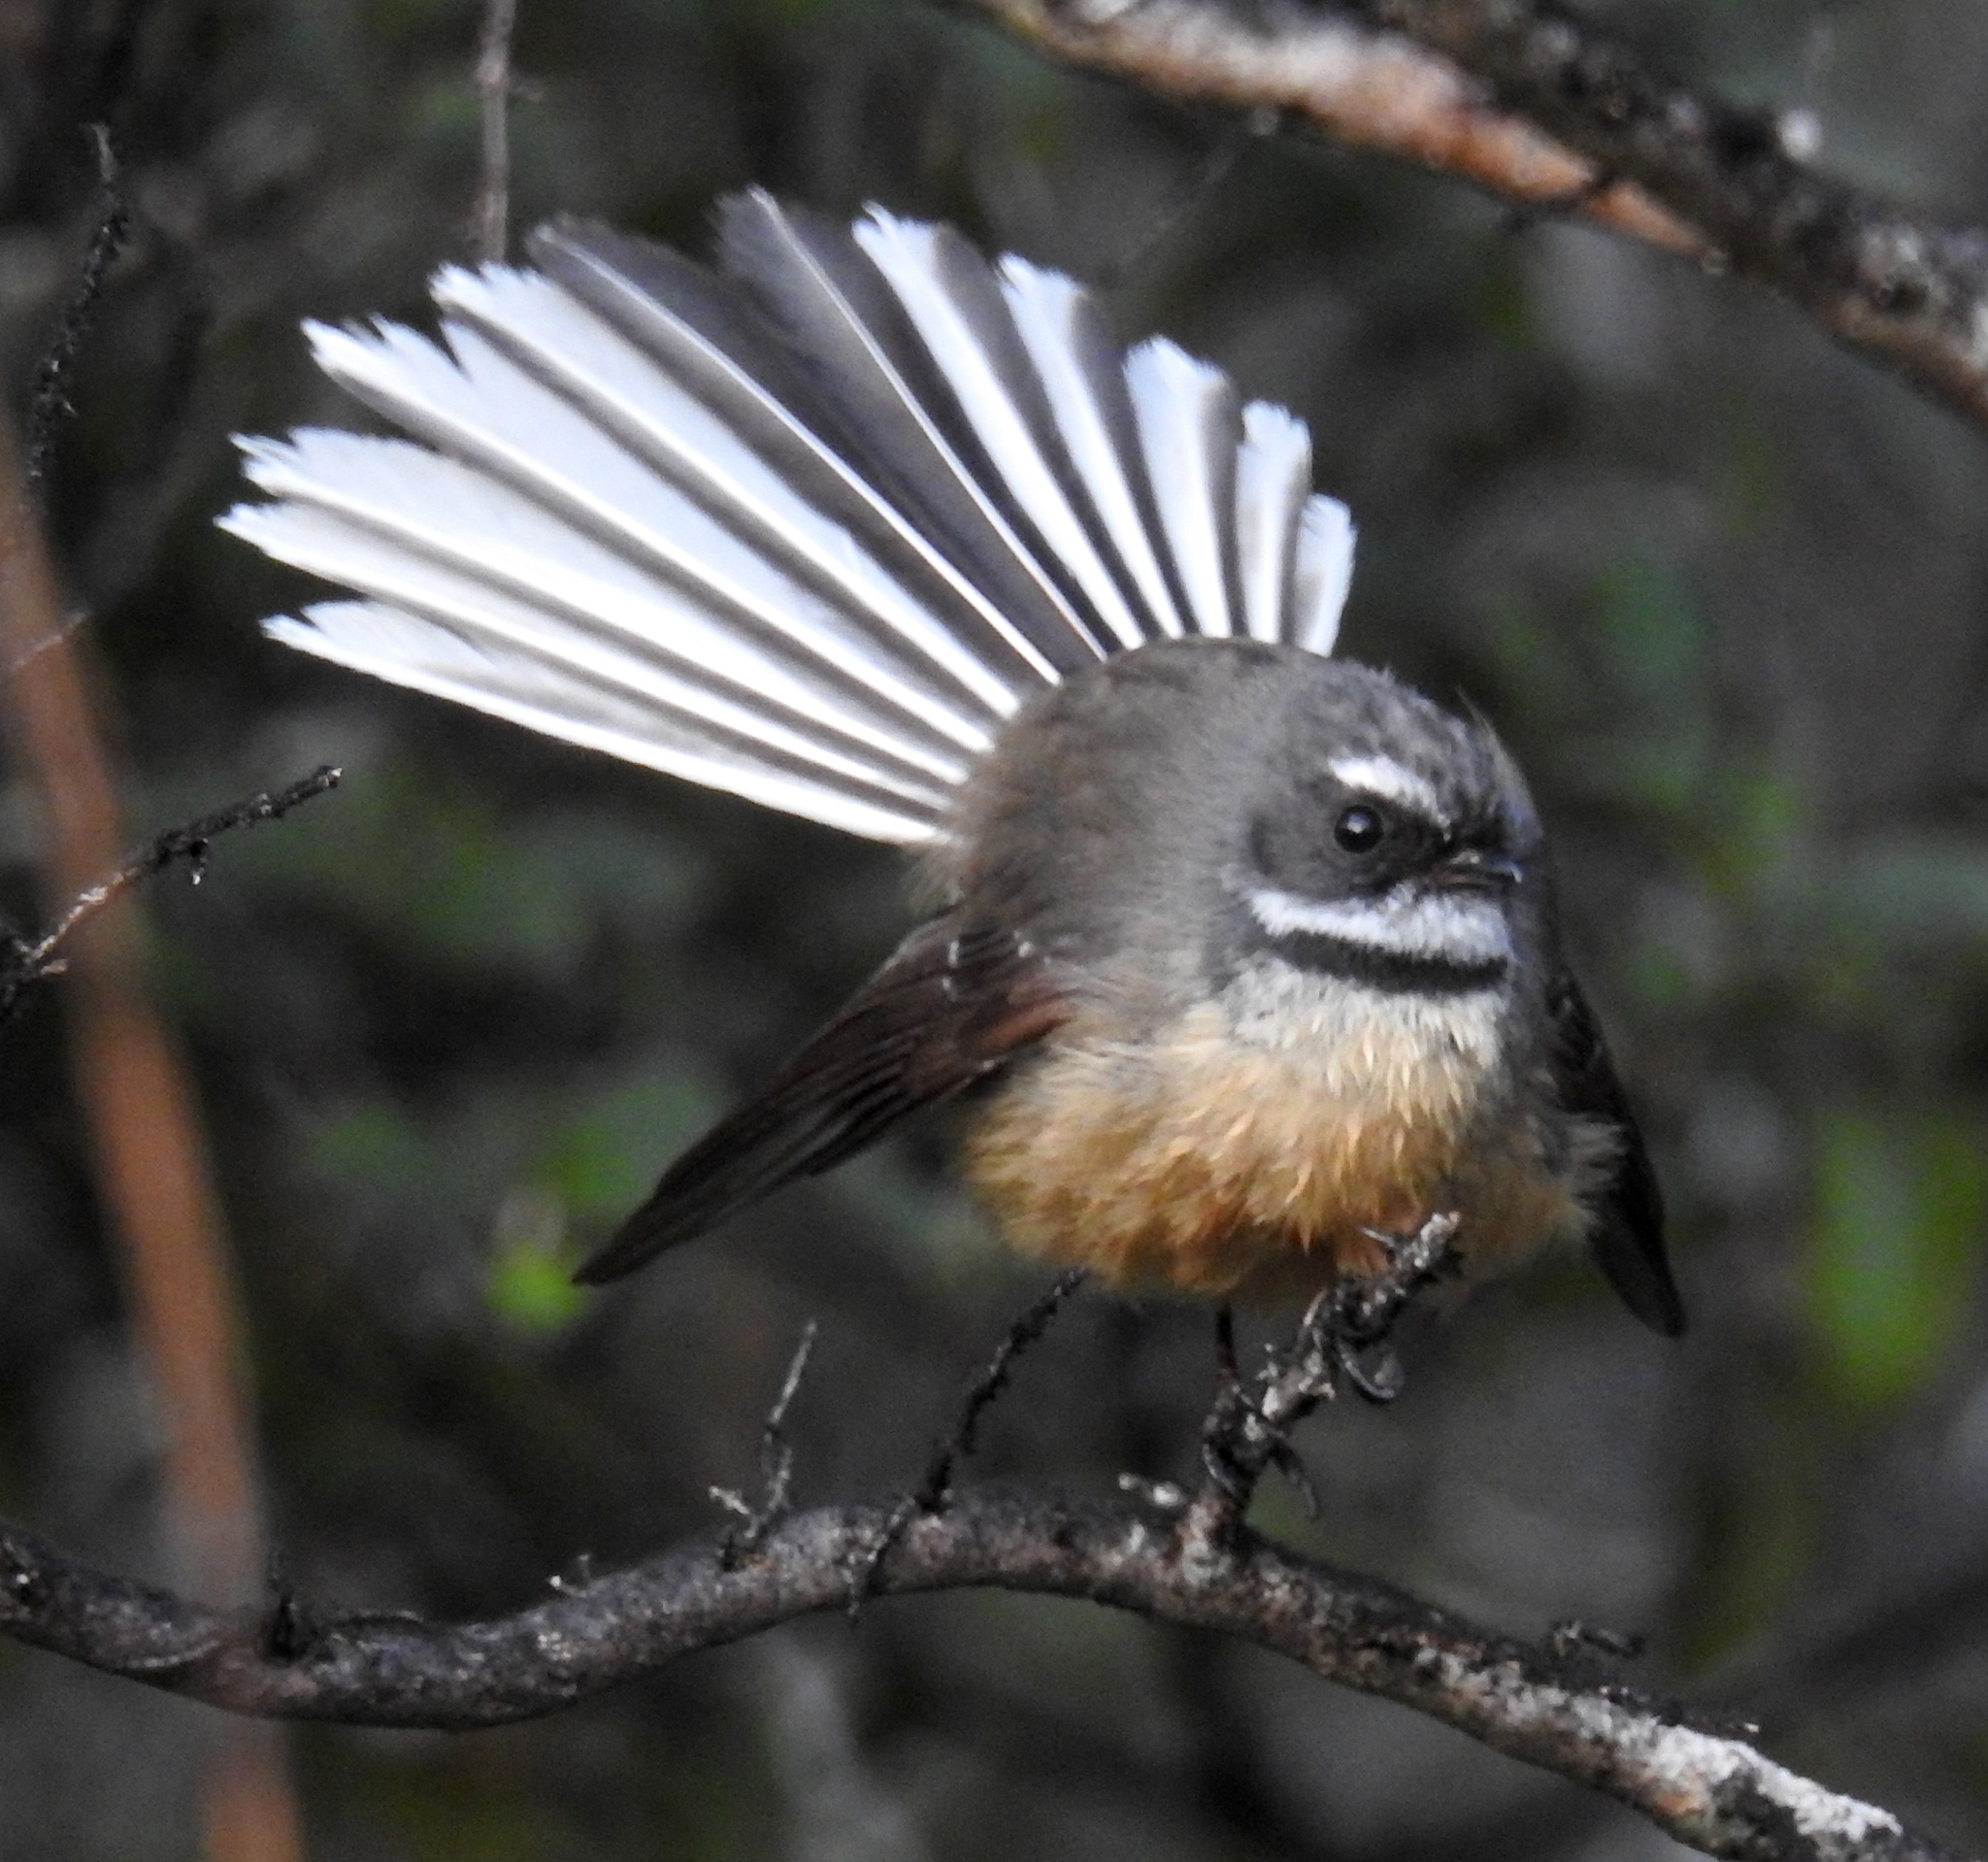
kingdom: Animalia
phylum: Chordata
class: Aves
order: Passeriformes
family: Rhipiduridae
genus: Rhipidura
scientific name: Rhipidura fuliginosa
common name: New zealand fantail
